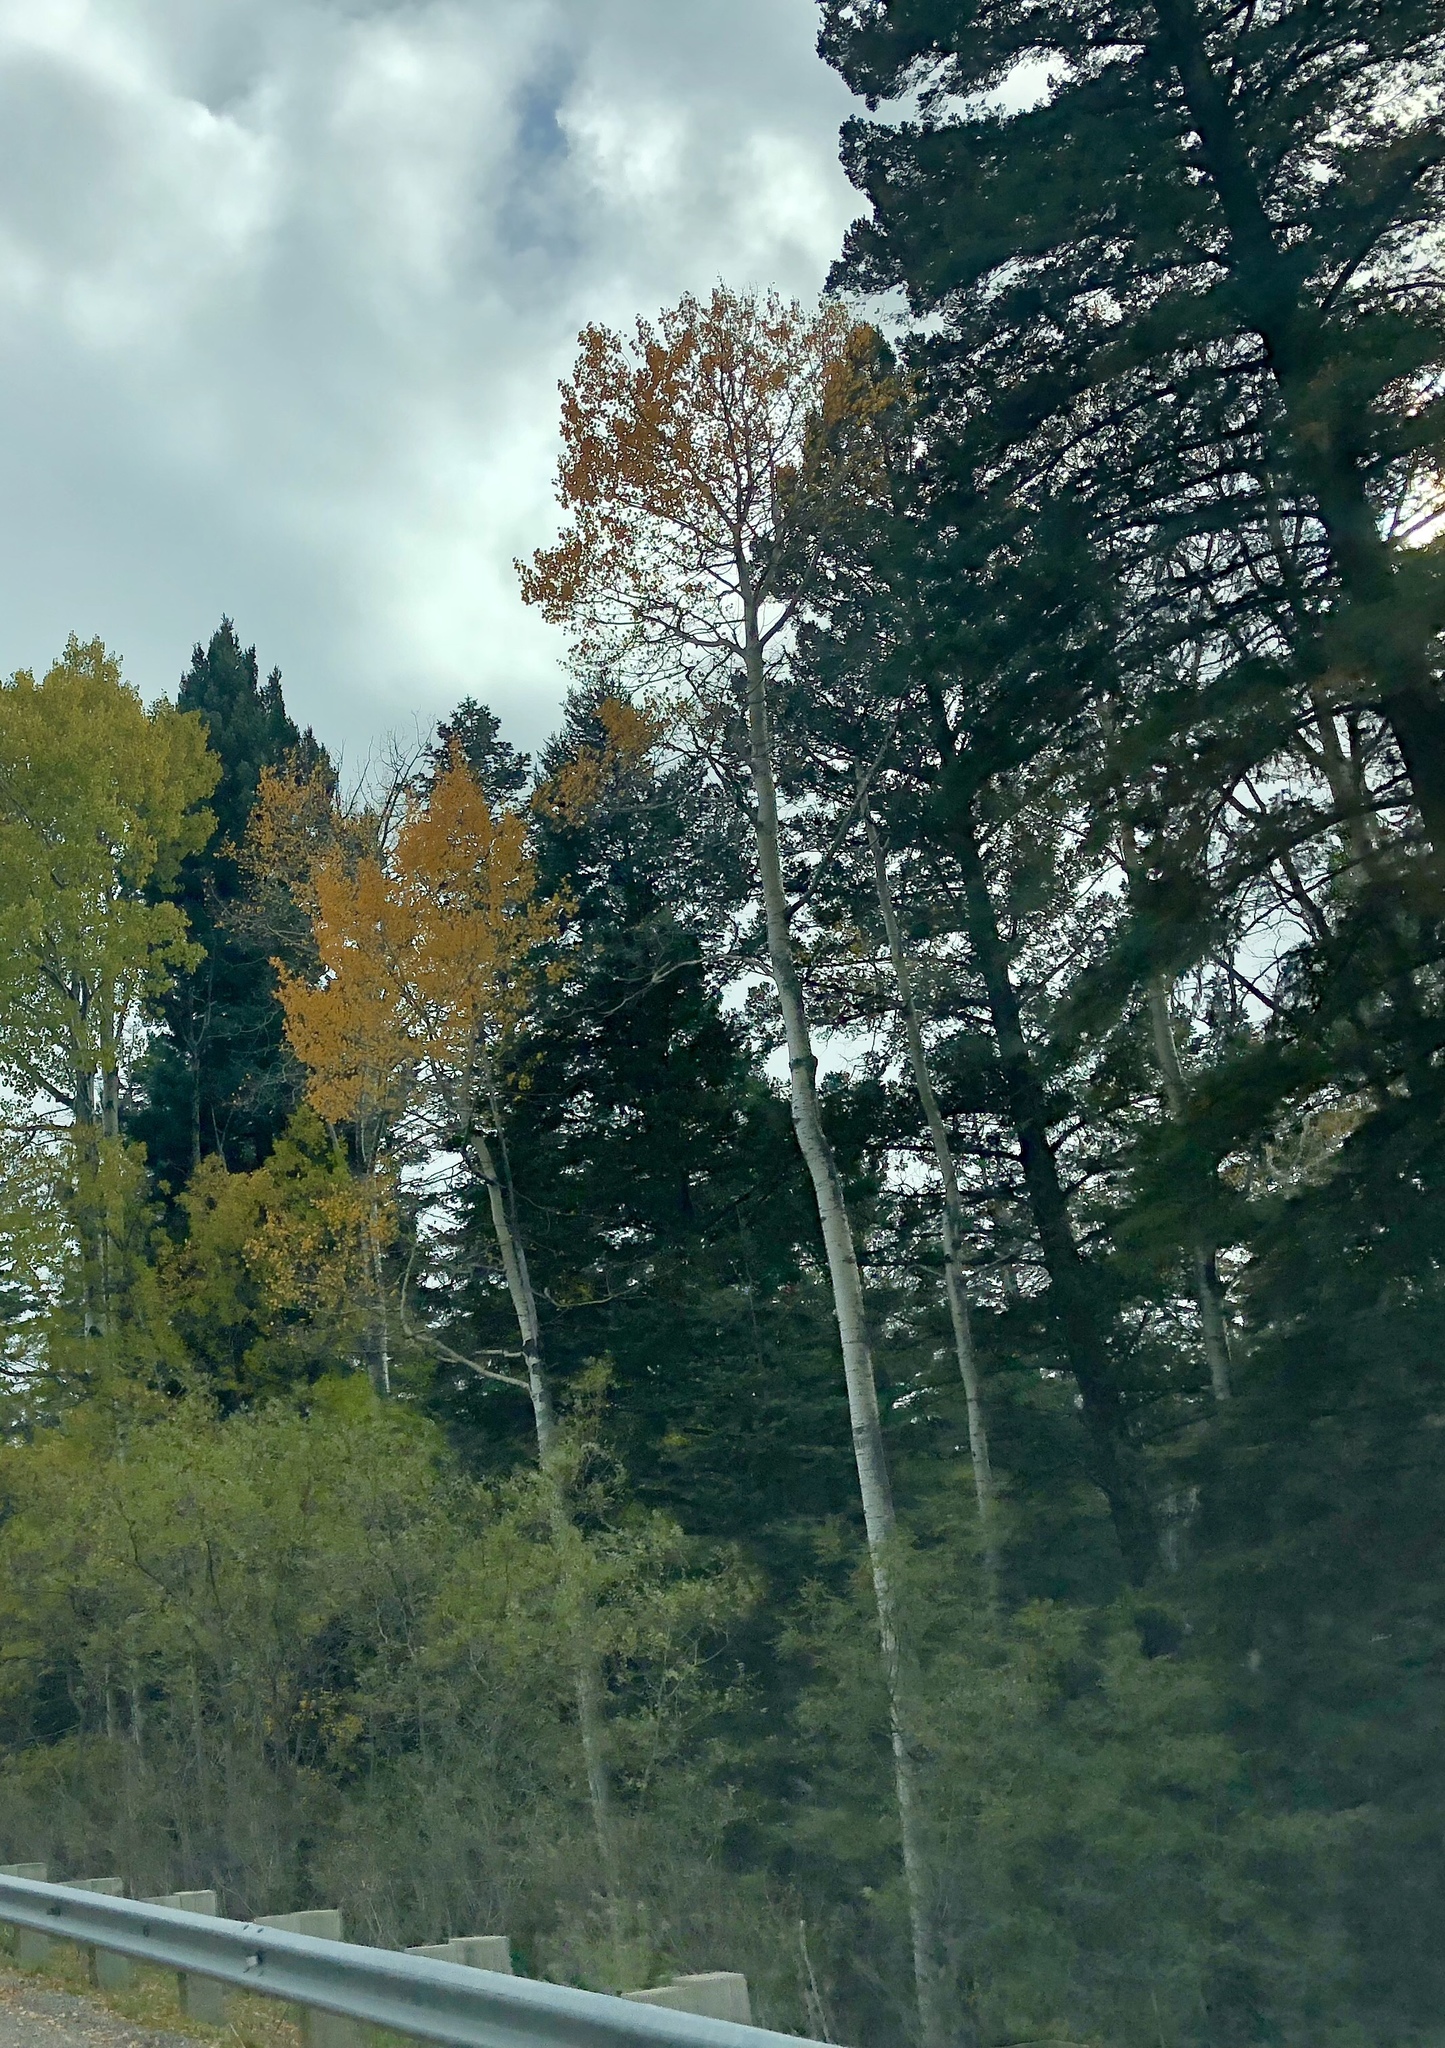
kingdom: Plantae
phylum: Tracheophyta
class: Magnoliopsida
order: Malpighiales
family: Salicaceae
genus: Populus
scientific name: Populus tremuloides
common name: Quaking aspen
